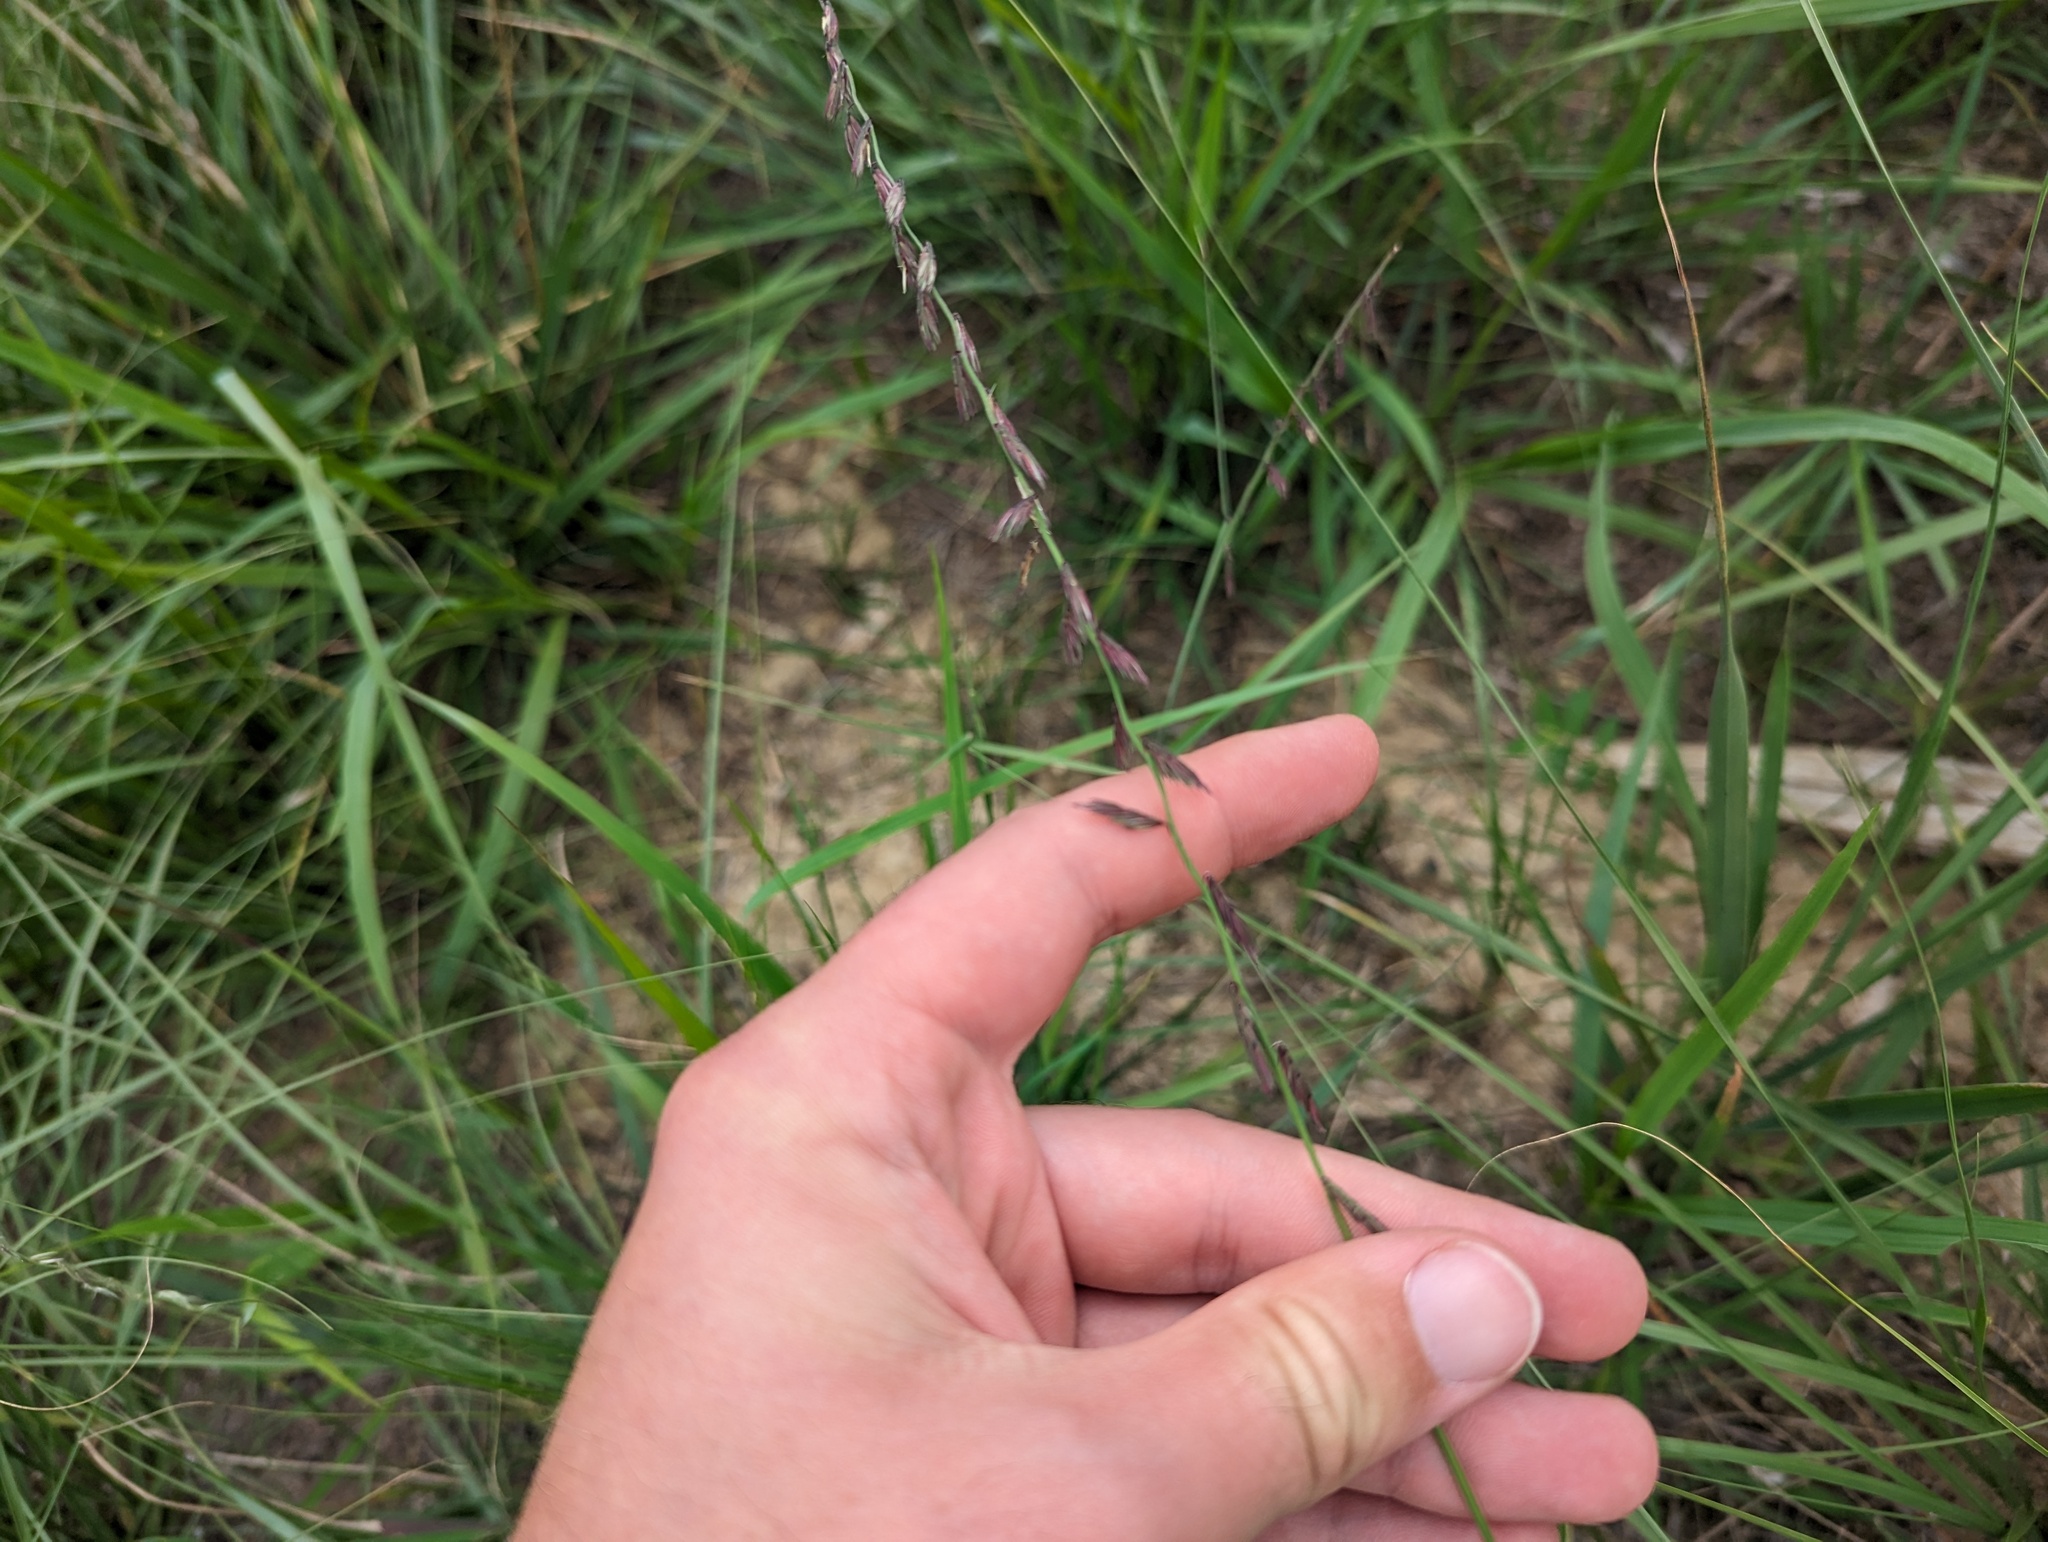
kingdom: Plantae
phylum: Tracheophyta
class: Liliopsida
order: Poales
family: Poaceae
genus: Bouteloua
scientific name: Bouteloua curtipendula
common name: Side-oats grama
